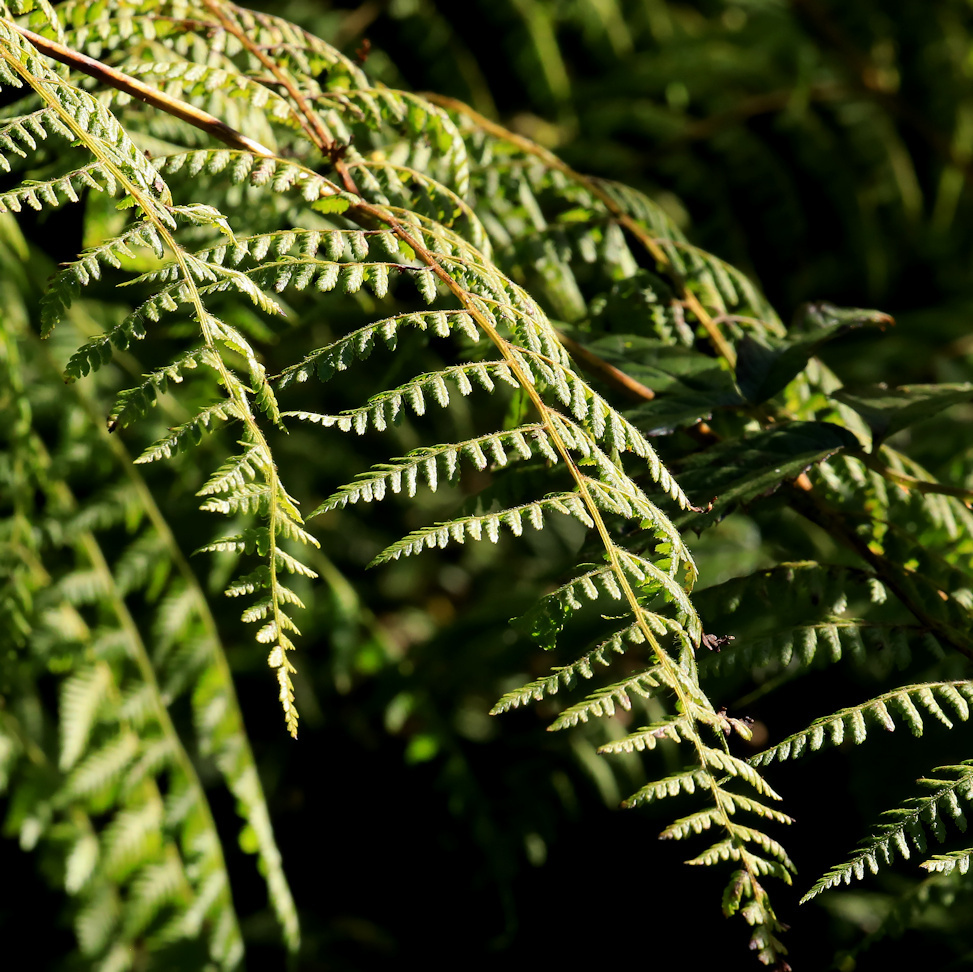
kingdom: Plantae
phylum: Tracheophyta
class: Polypodiopsida
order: Polypodiales
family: Dennstaedtiaceae
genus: Pteridium
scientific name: Pteridium aquilinum
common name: Bracken
